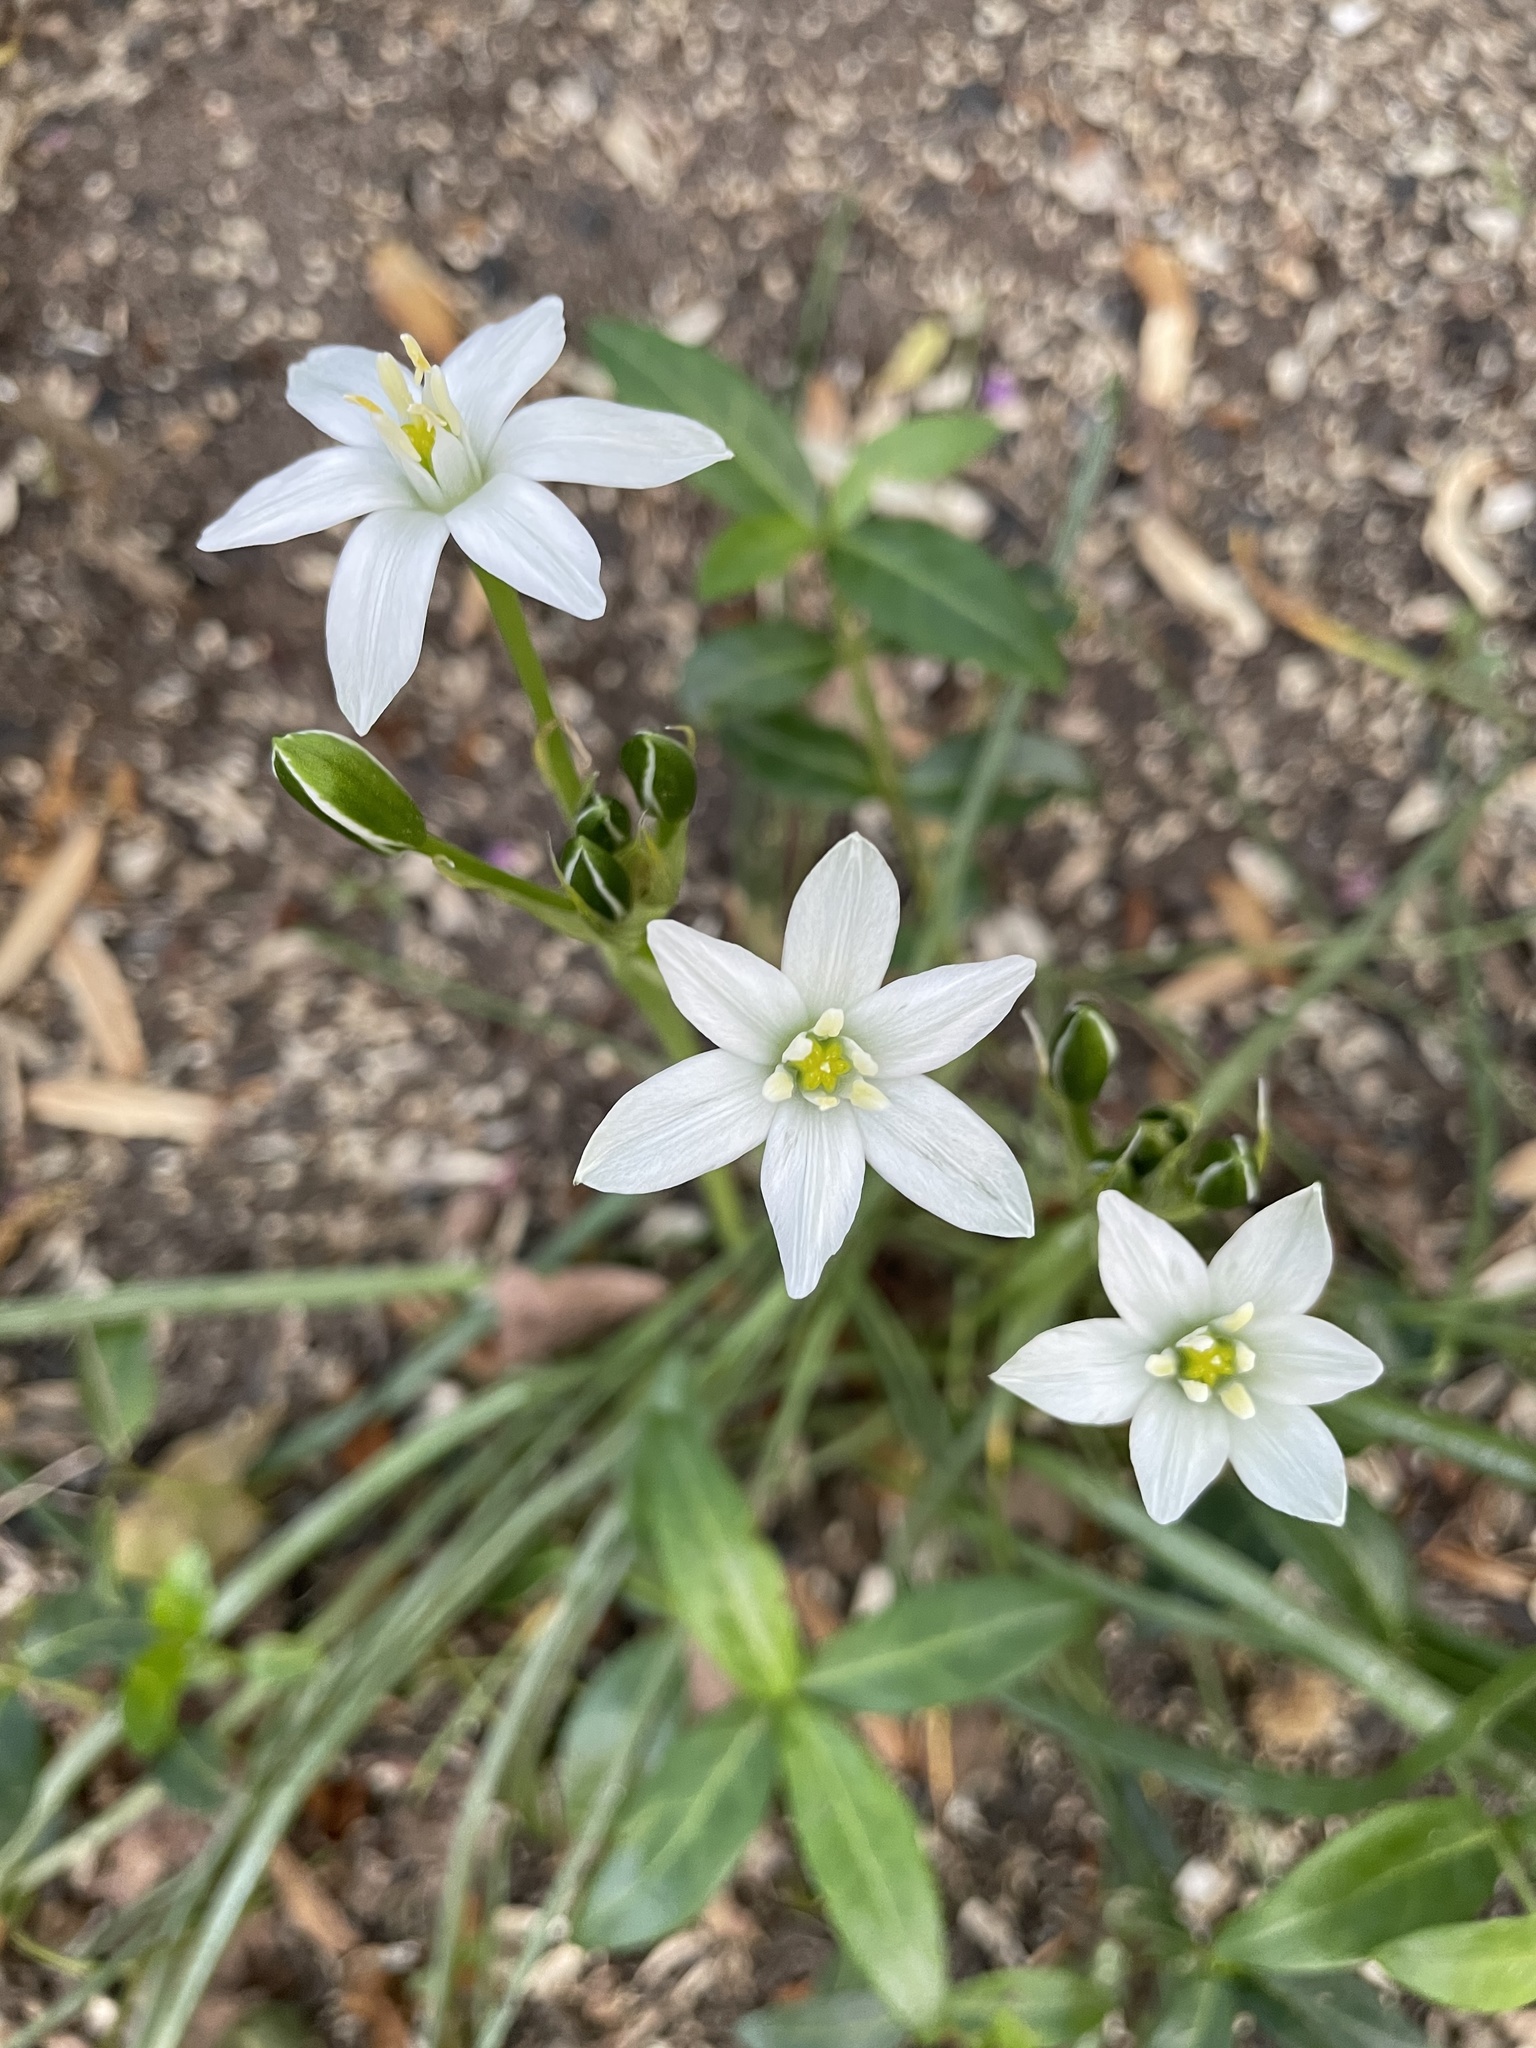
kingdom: Plantae
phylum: Tracheophyta
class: Liliopsida
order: Asparagales
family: Asparagaceae
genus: Ornithogalum
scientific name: Ornithogalum umbellatum
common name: Garden star-of-bethlehem
